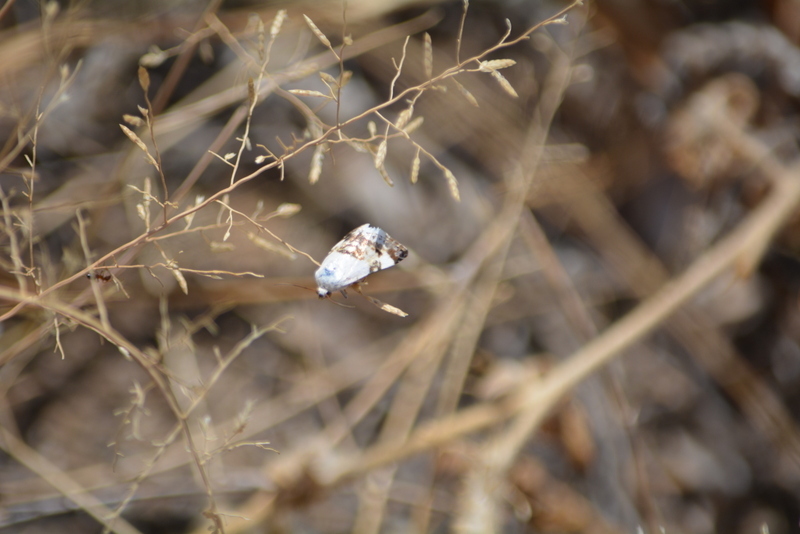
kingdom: Animalia
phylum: Arthropoda
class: Insecta
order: Lepidoptera
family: Noctuidae
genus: Acontia
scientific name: Acontia lucida
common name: Pale shoulder
